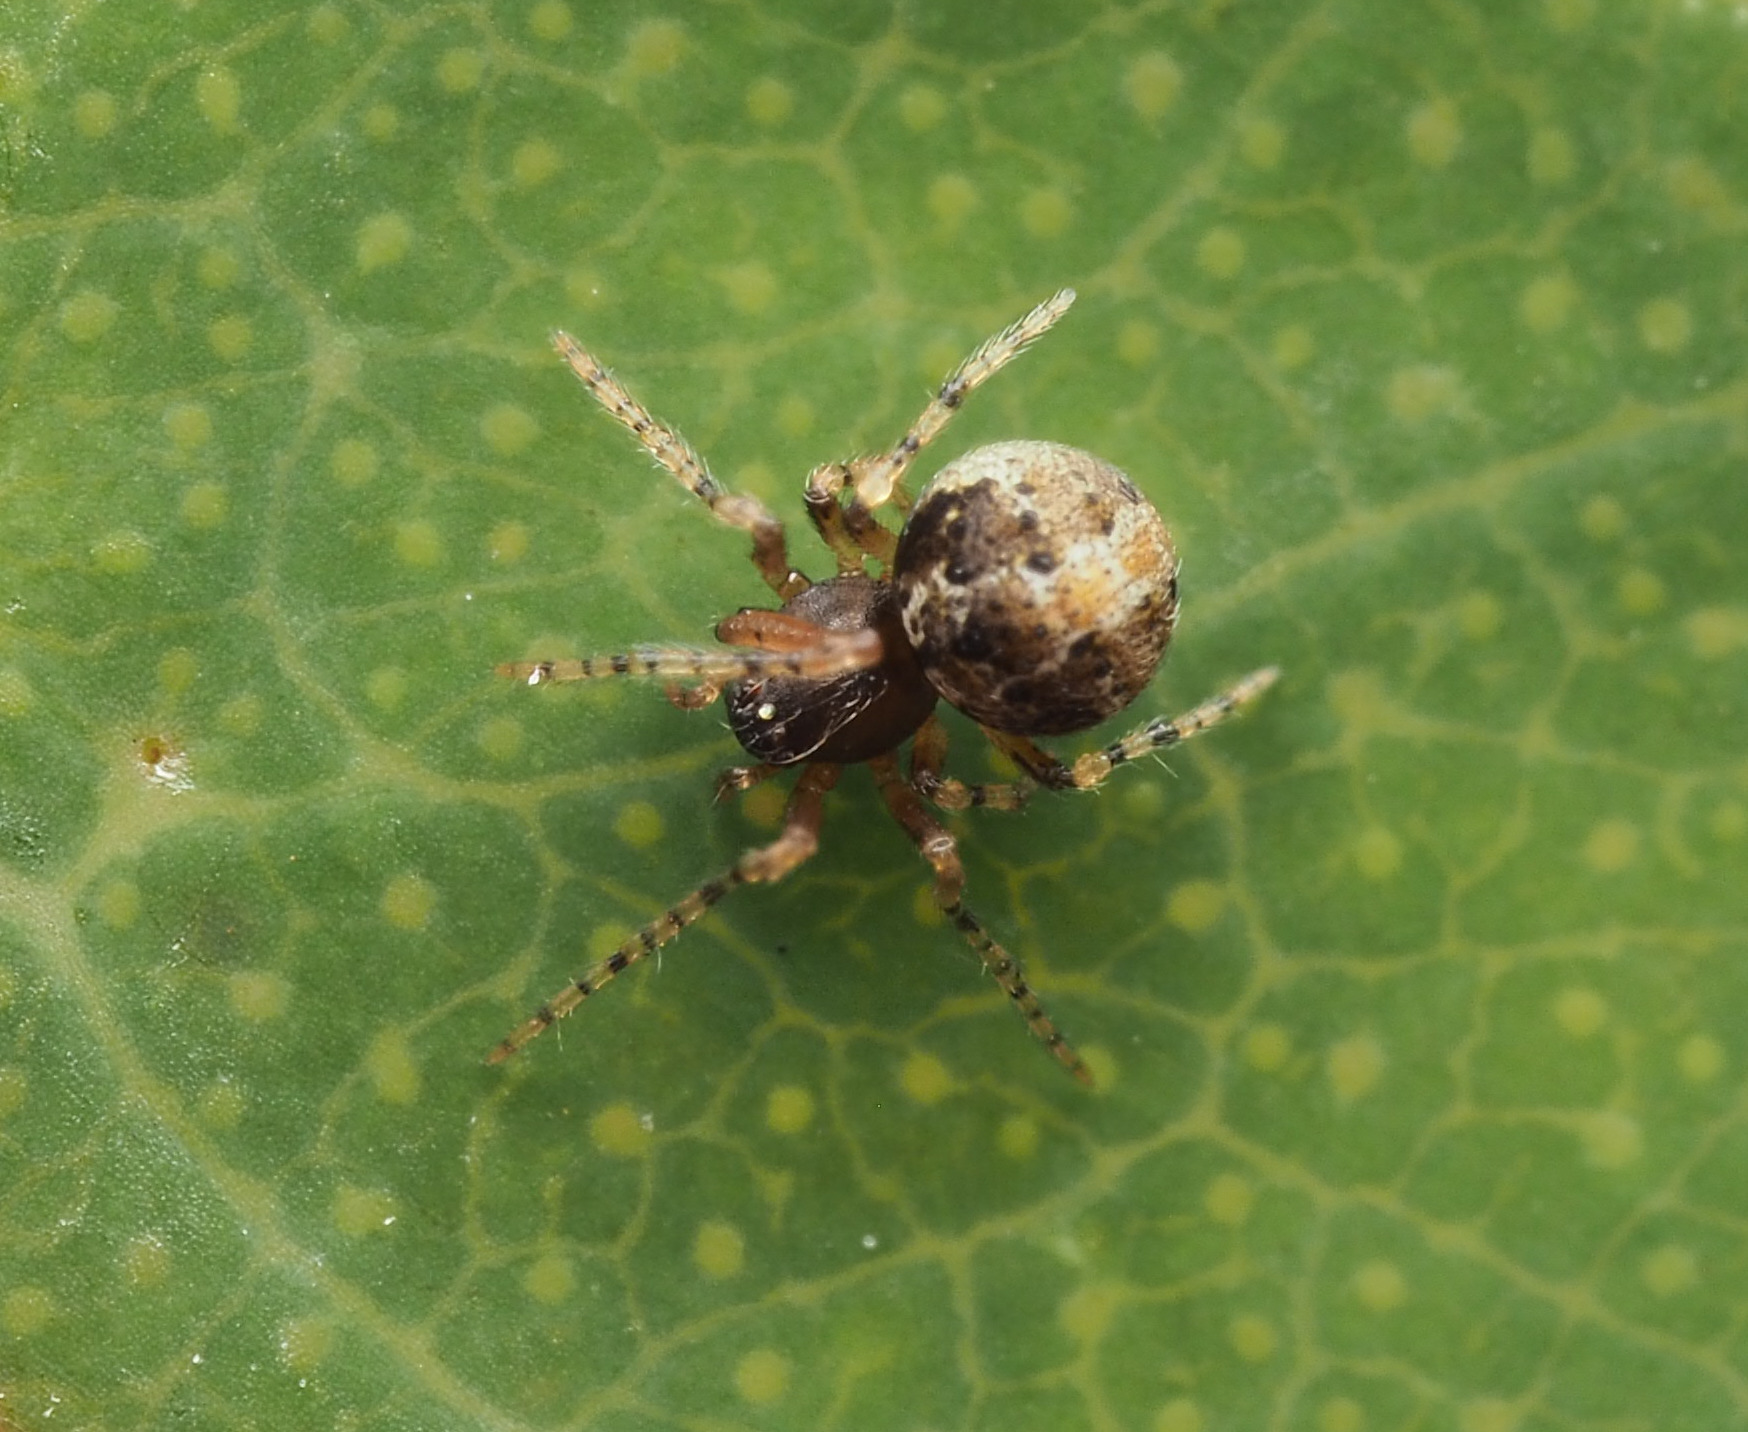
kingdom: Animalia
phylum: Arthropoda
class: Arachnida
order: Araneae
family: Theridiidae
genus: Platnickina
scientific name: Platnickina
